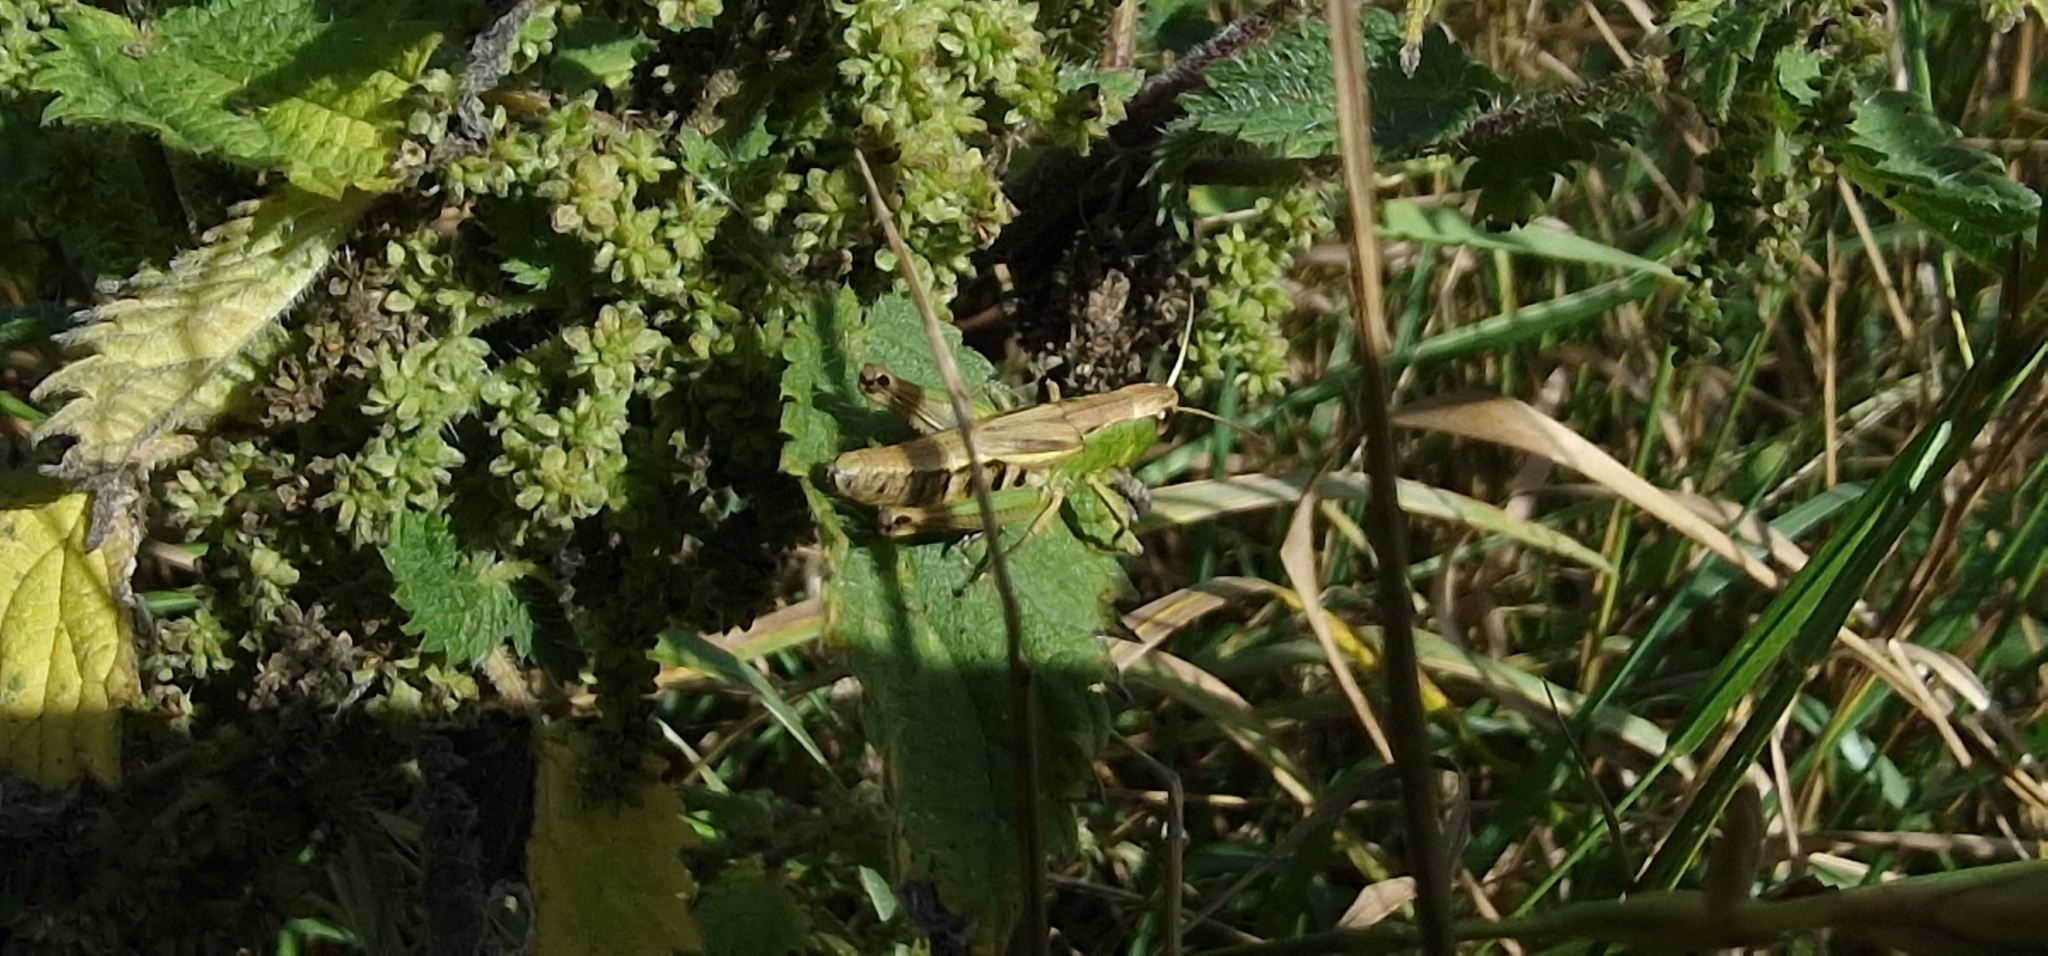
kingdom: Animalia
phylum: Arthropoda
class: Insecta
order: Orthoptera
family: Acrididae
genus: Pseudochorthippus
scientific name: Pseudochorthippus parallelus
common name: Meadow grasshopper
